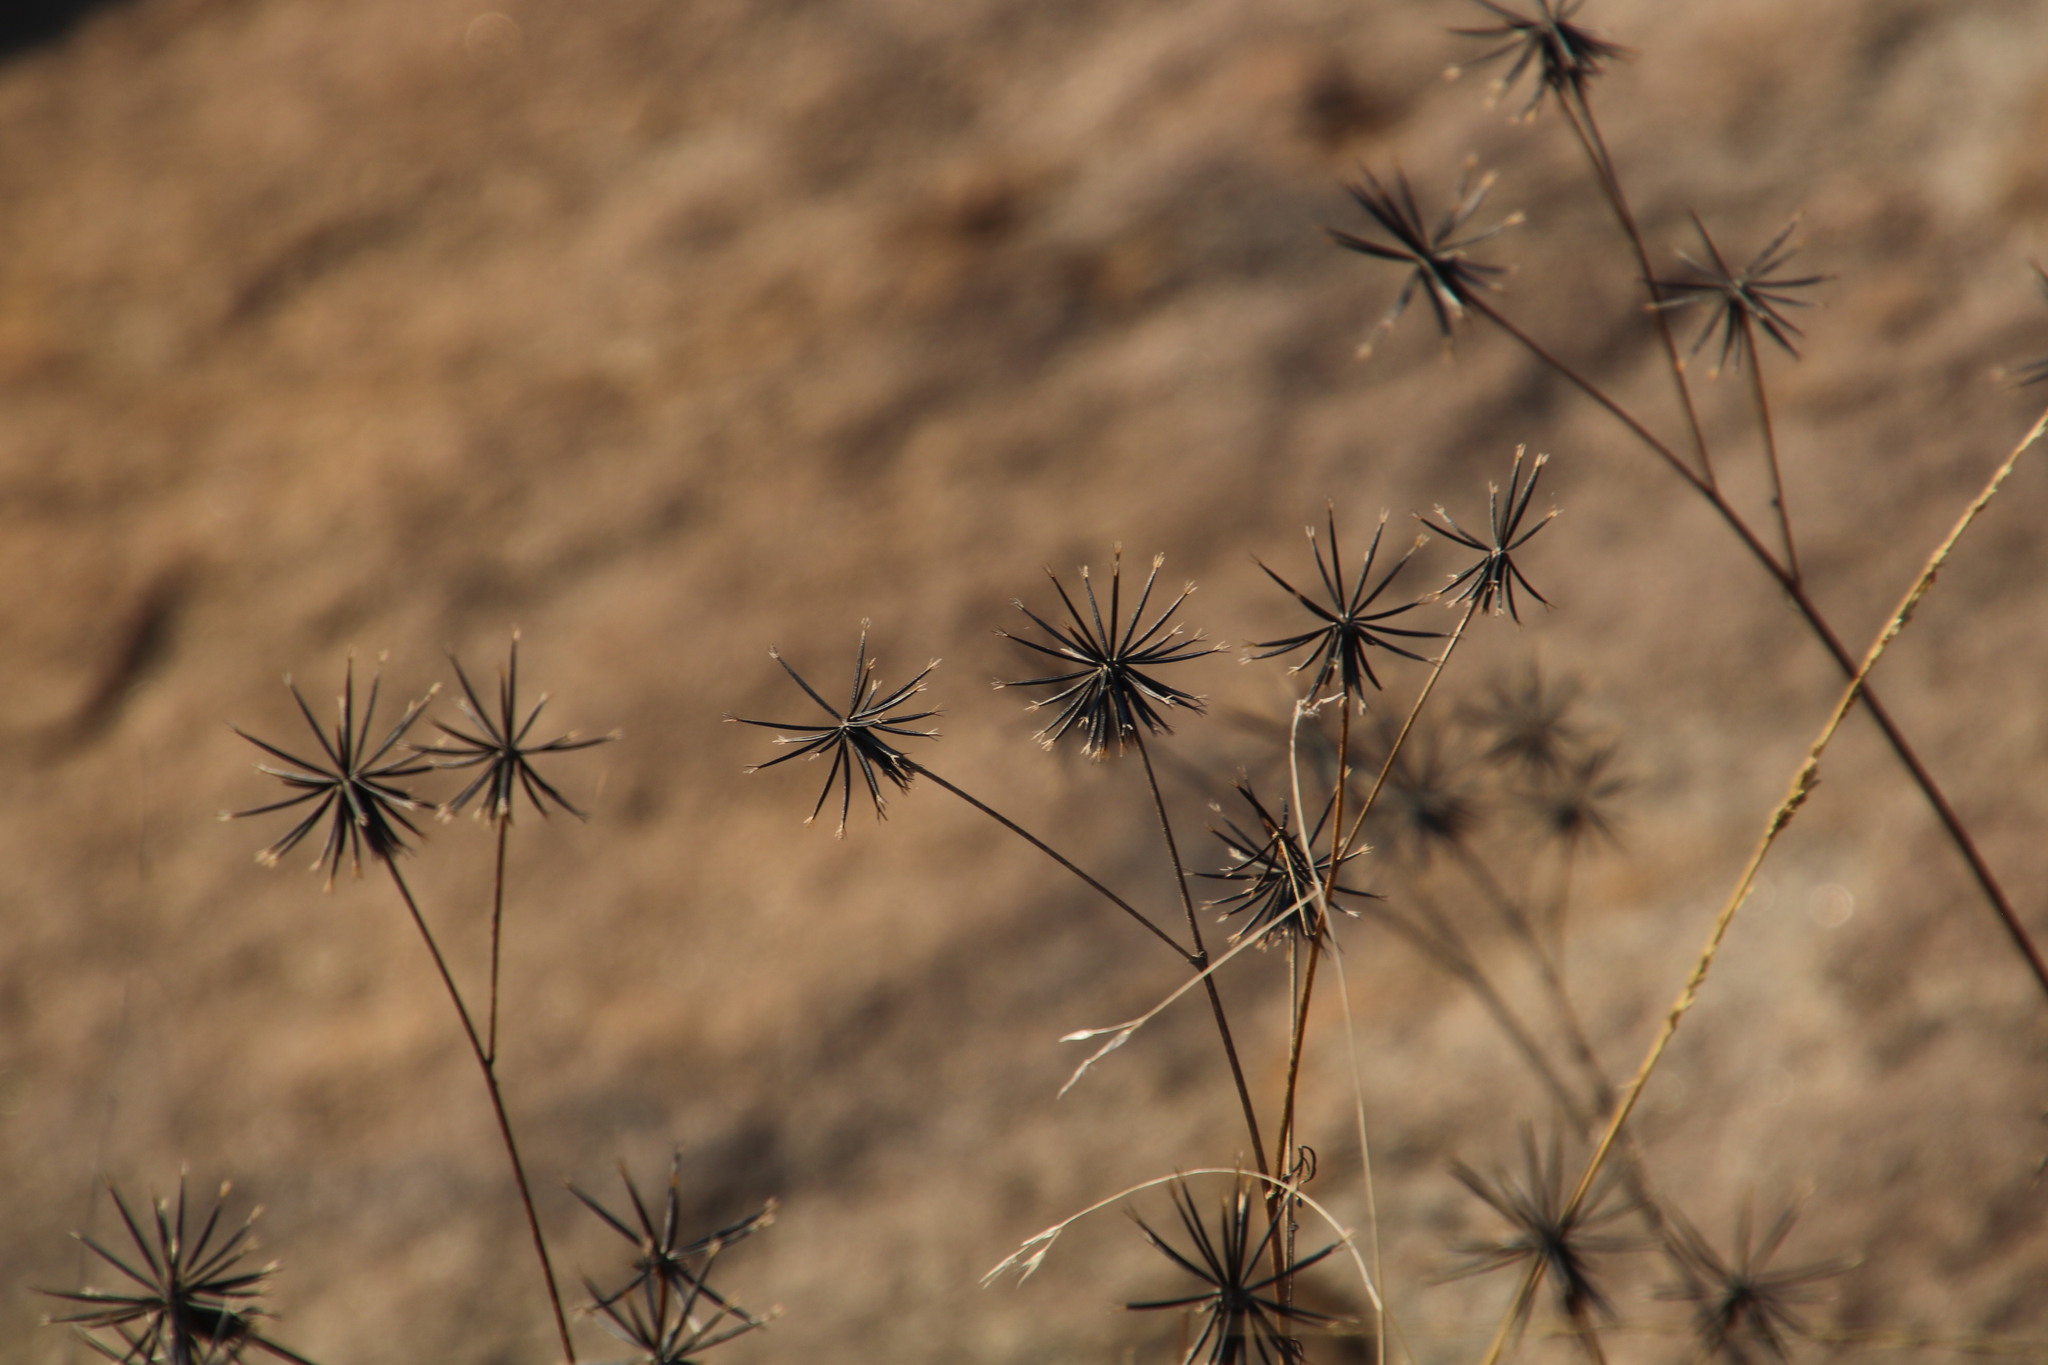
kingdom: Plantae
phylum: Tracheophyta
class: Magnoliopsida
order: Asterales
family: Asteraceae
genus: Bidens
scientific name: Bidens pilosa
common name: Black-jack
